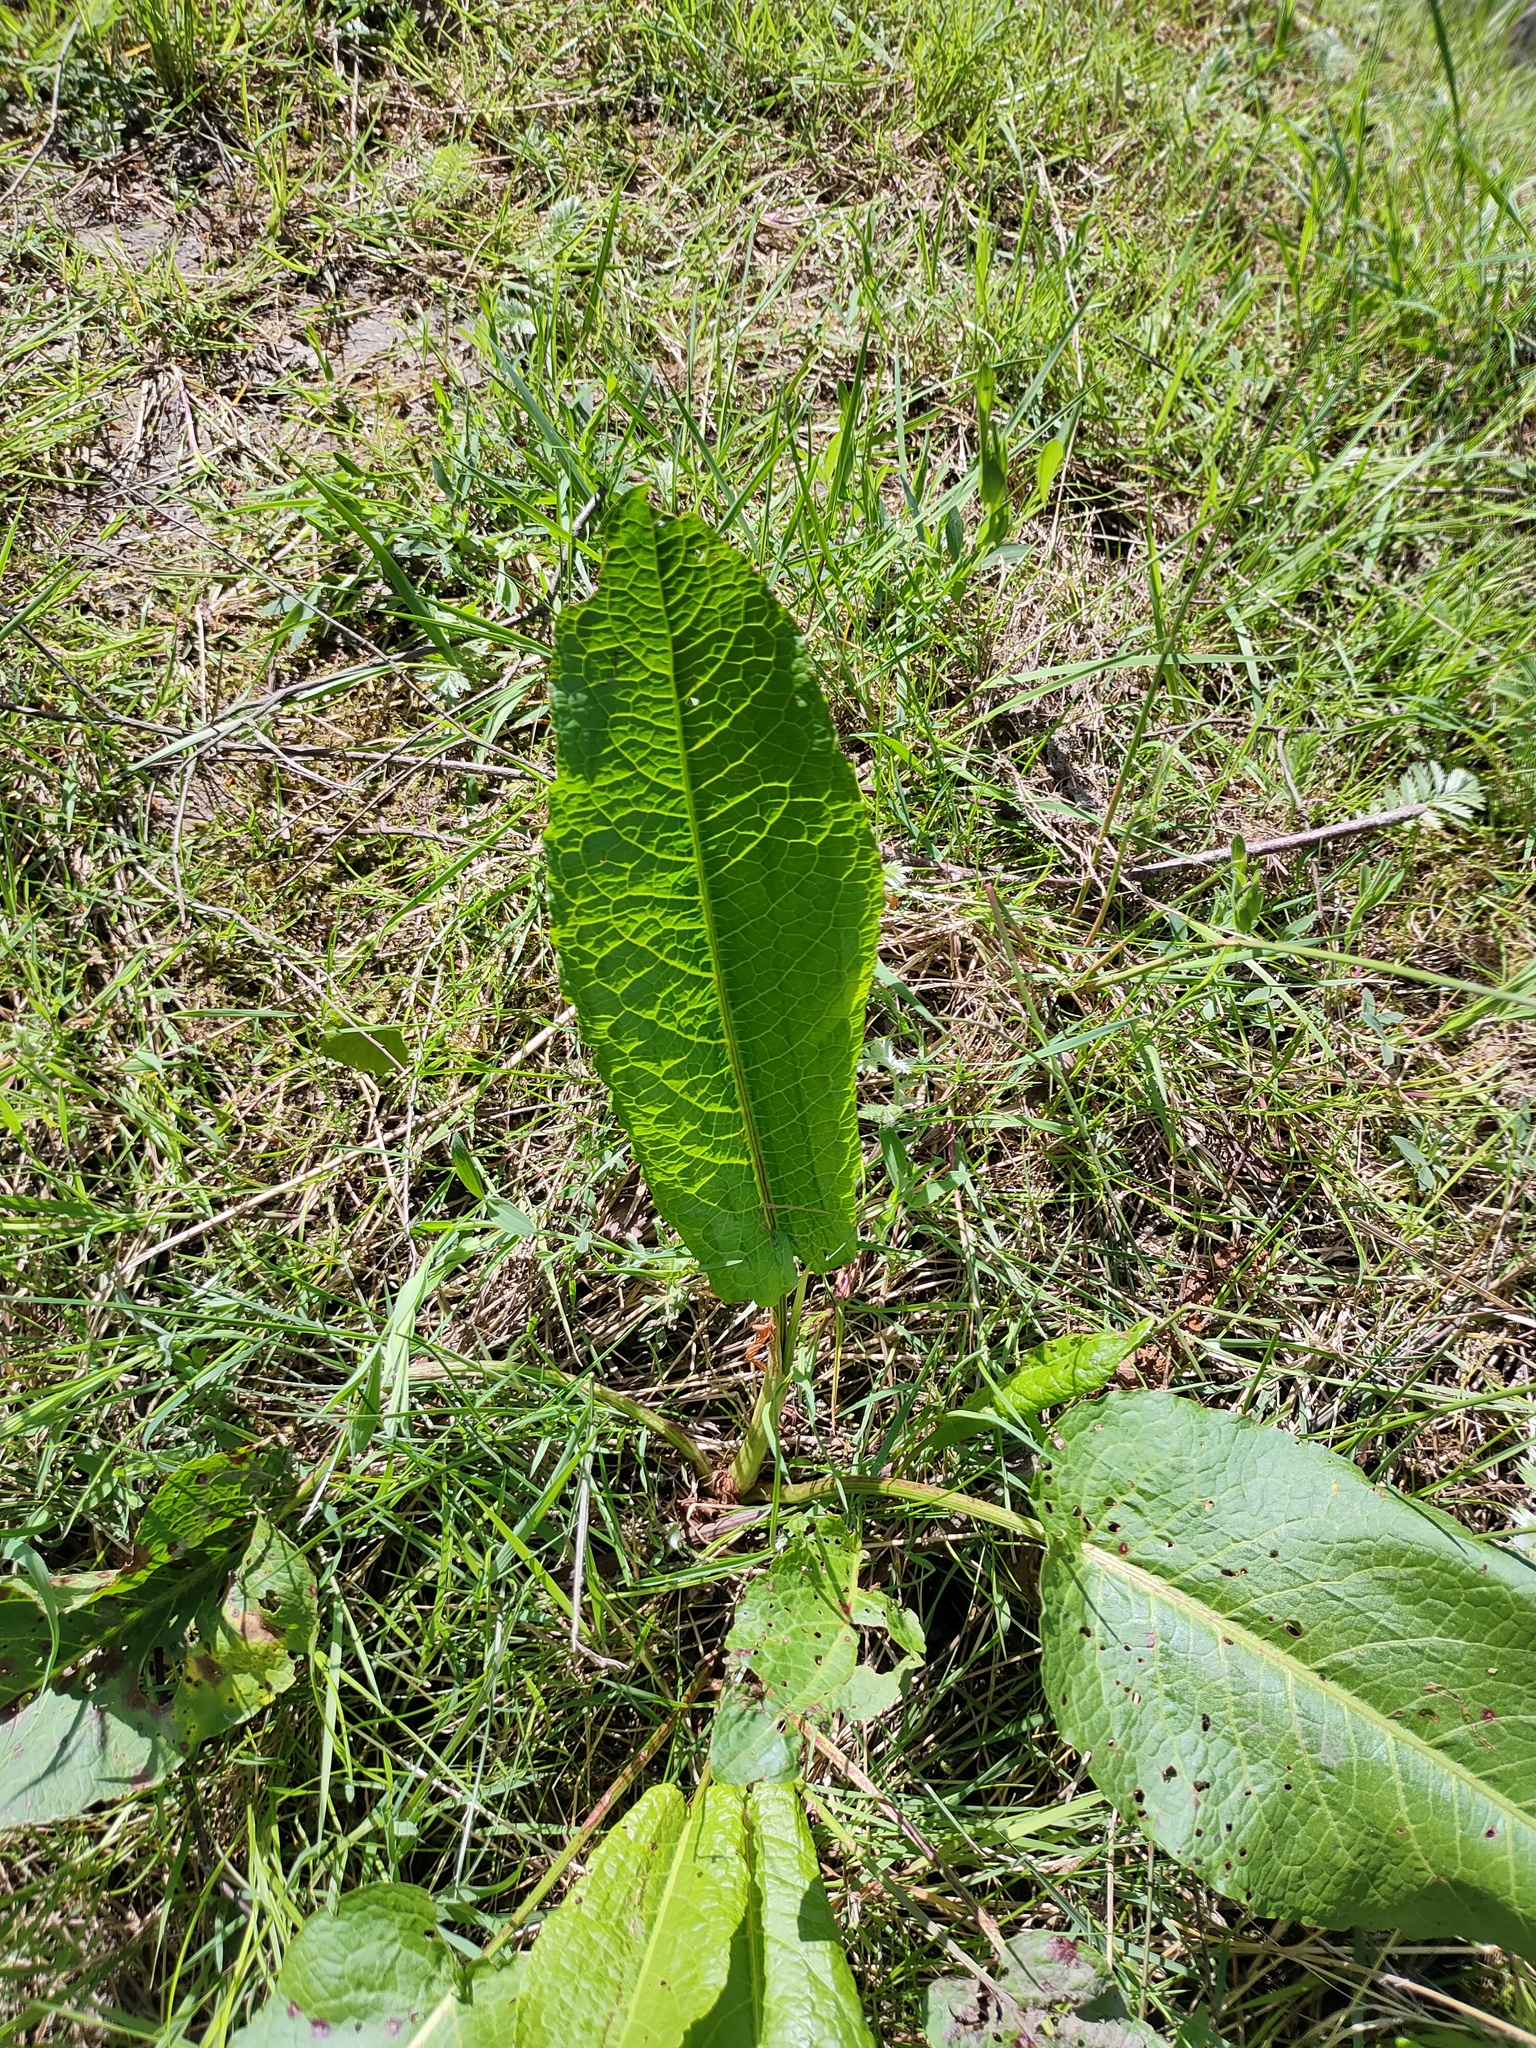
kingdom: Plantae
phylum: Tracheophyta
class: Magnoliopsida
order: Caryophyllales
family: Polygonaceae
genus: Rumex
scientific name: Rumex obtusifolius
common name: Bitter dock
